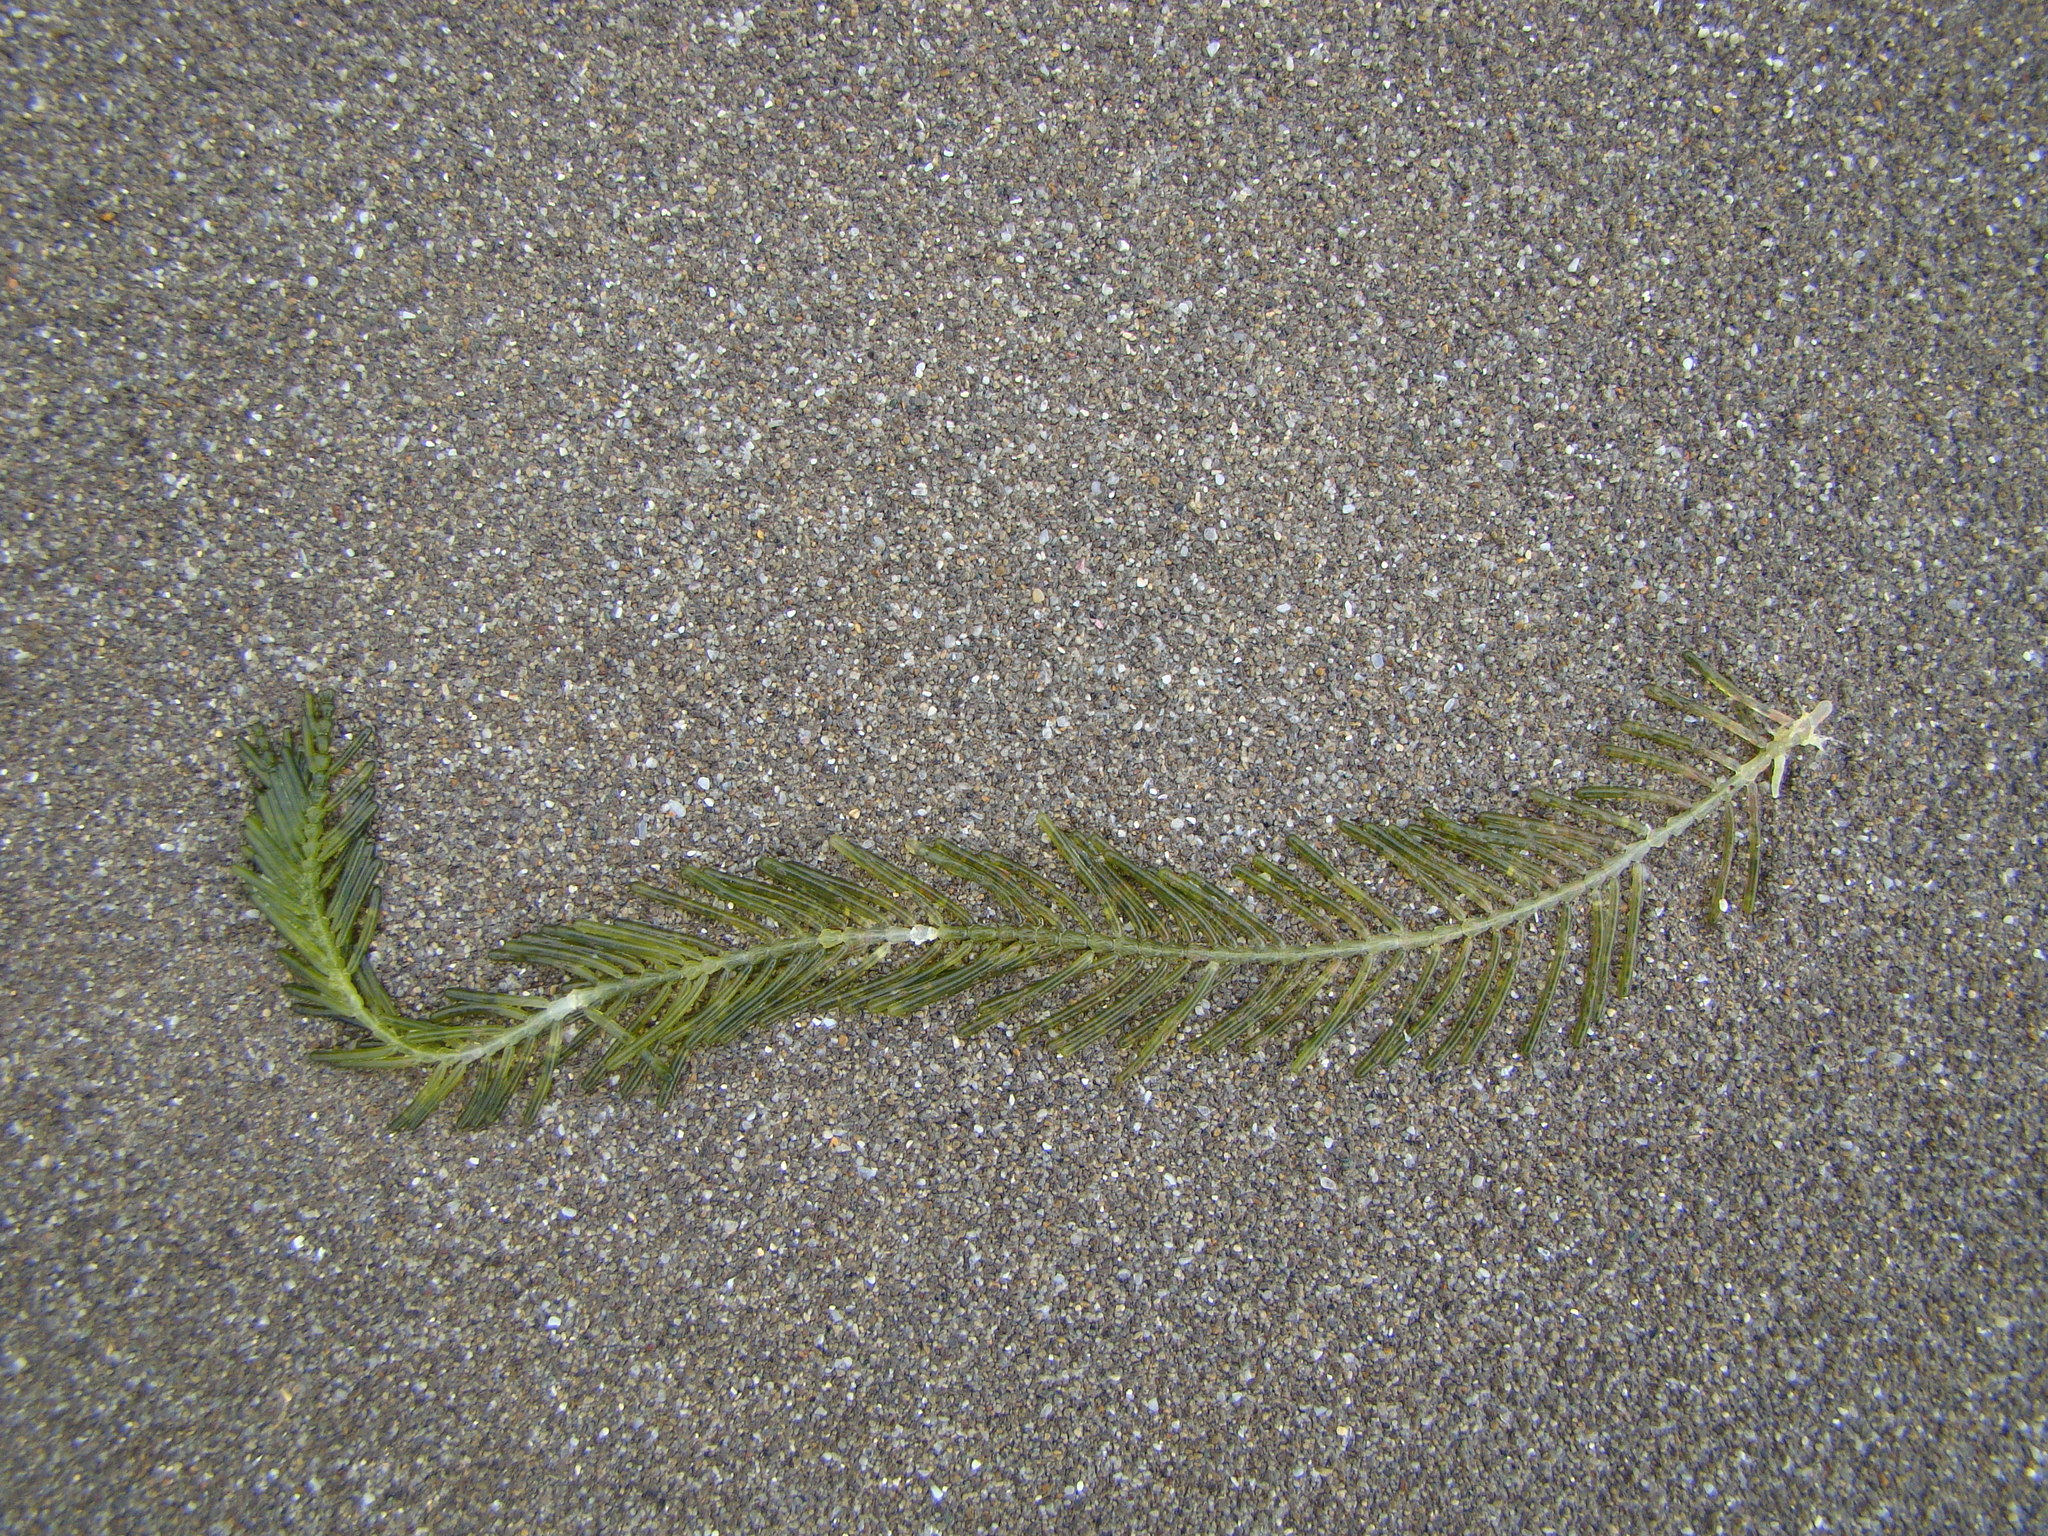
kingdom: Plantae
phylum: Chlorophyta
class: Ulvophyceae
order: Bryopsidales
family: Caulerpaceae
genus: Caulerpa
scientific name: Caulerpa articulata
